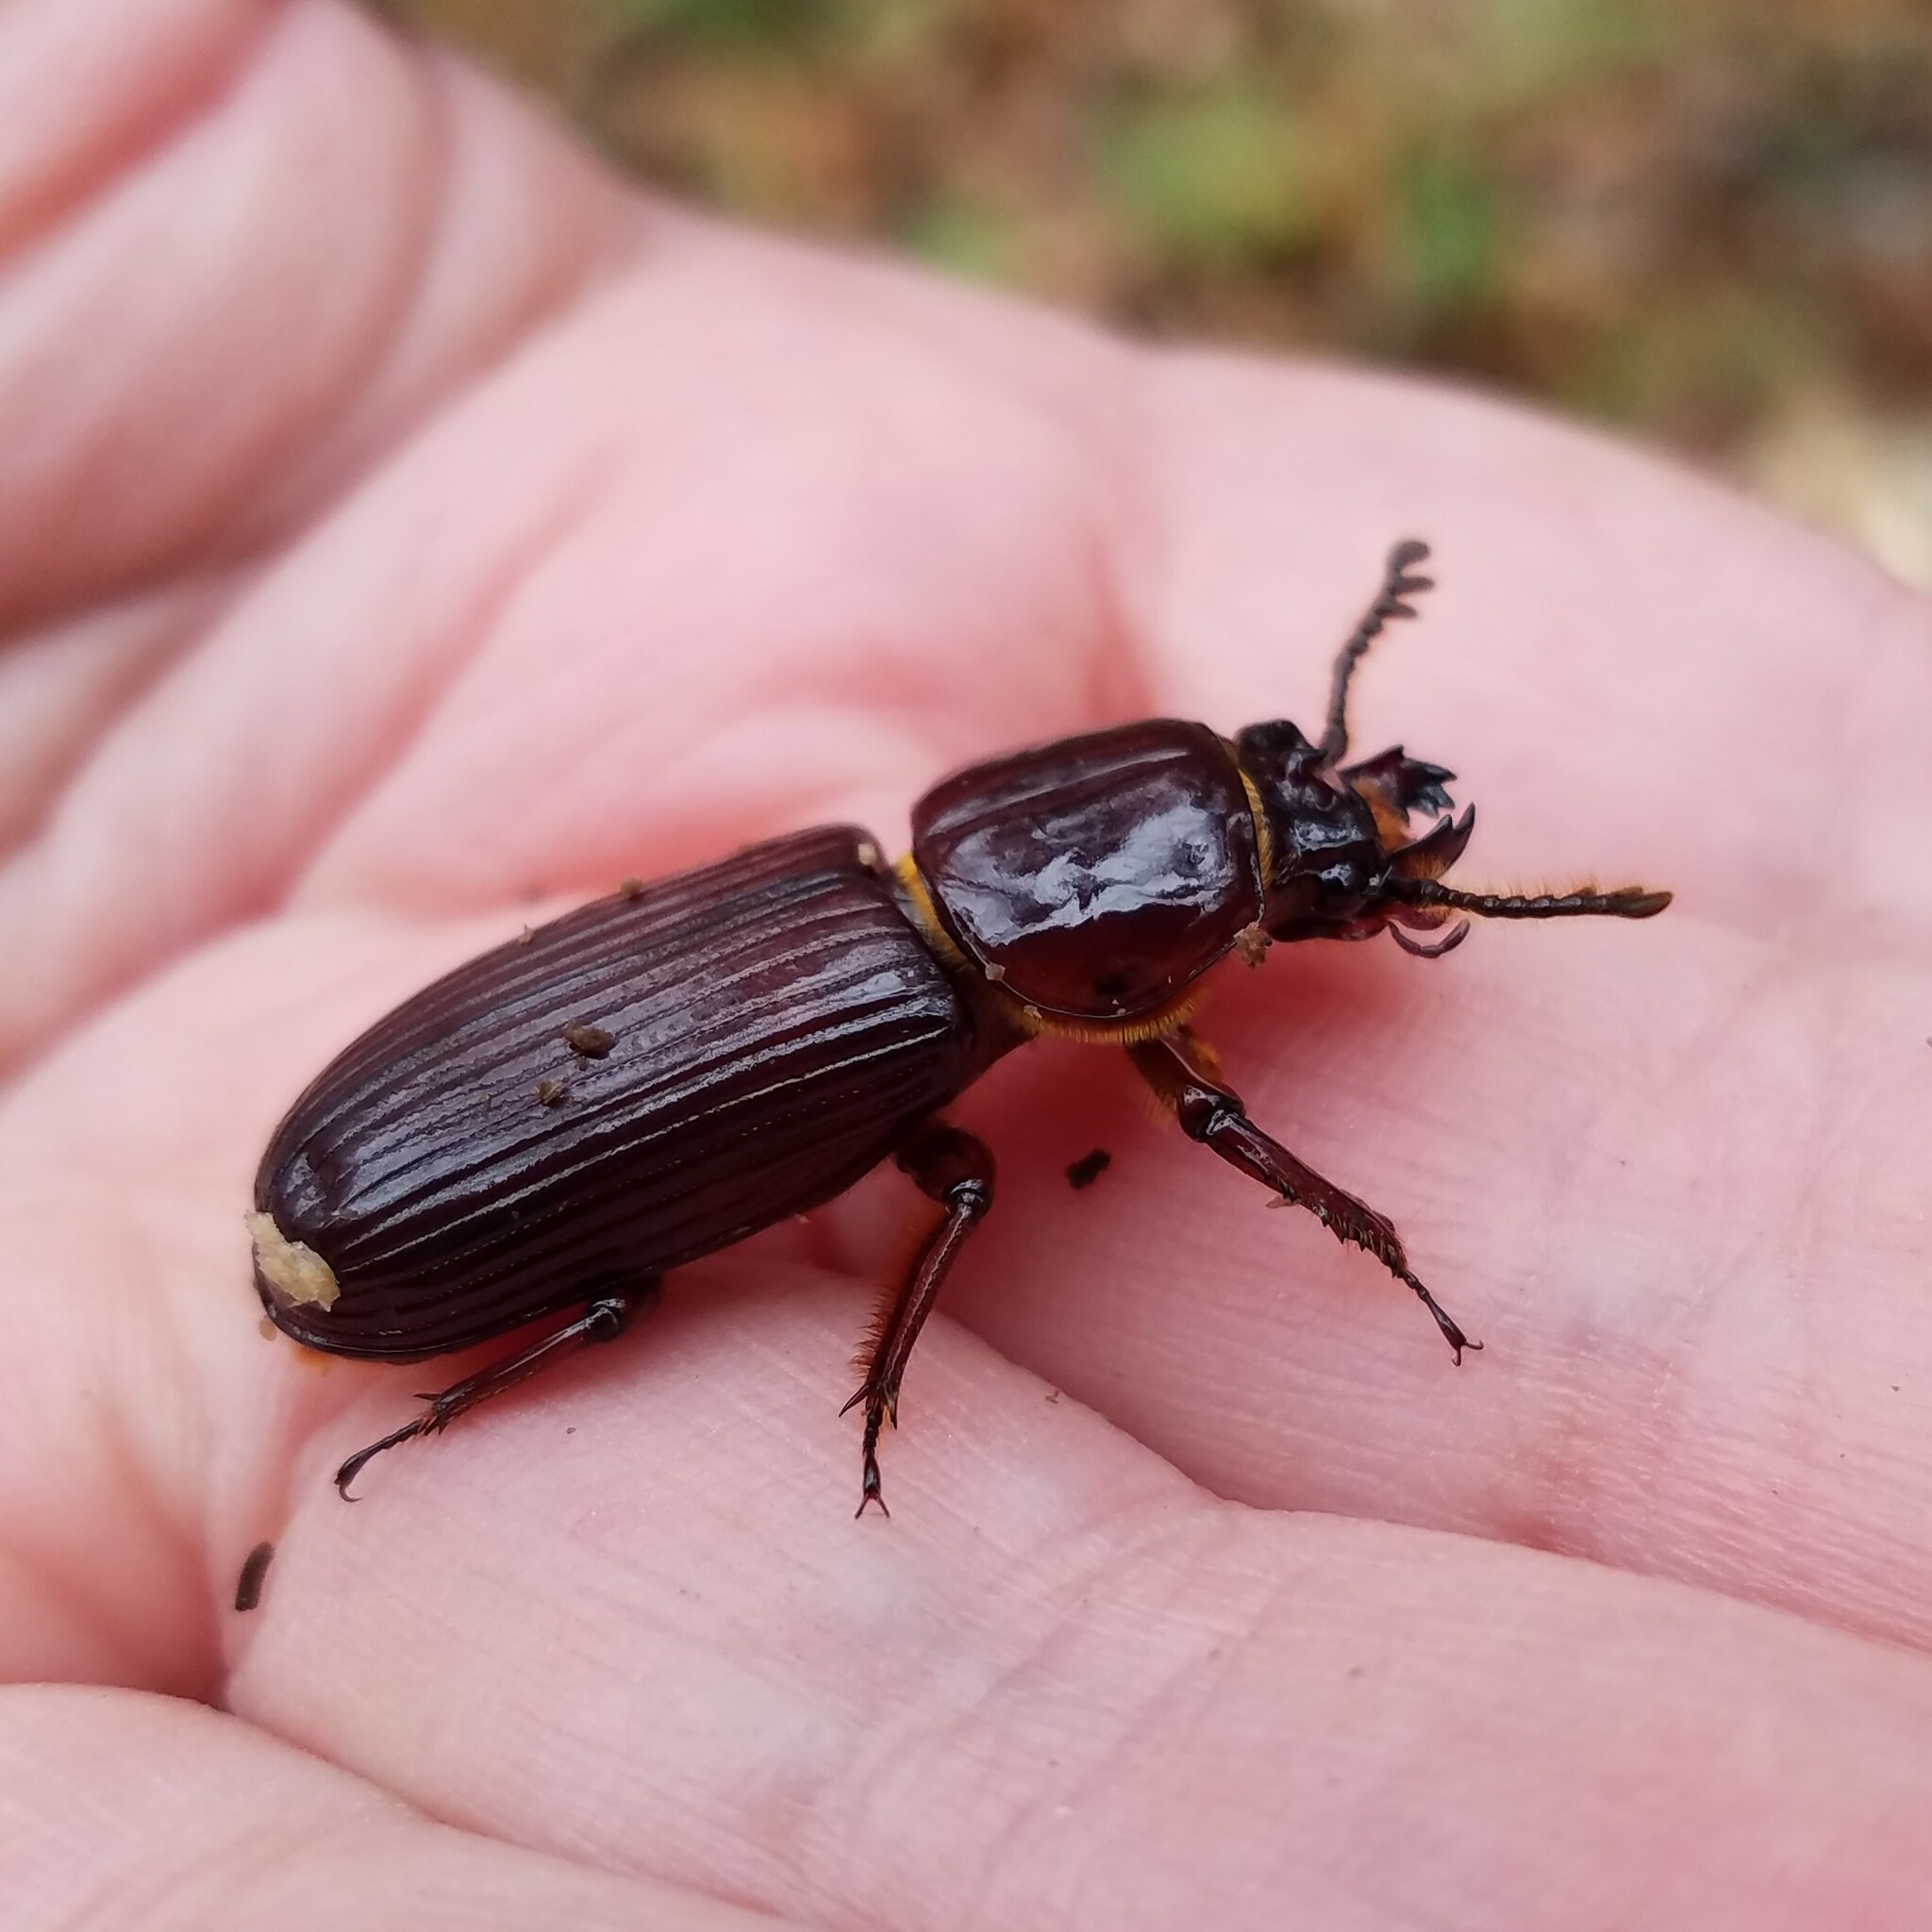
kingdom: Animalia
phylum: Arthropoda
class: Insecta
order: Coleoptera
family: Passalidae
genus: Odontotaenius
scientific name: Odontotaenius disjunctus
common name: Patent leather beetle
